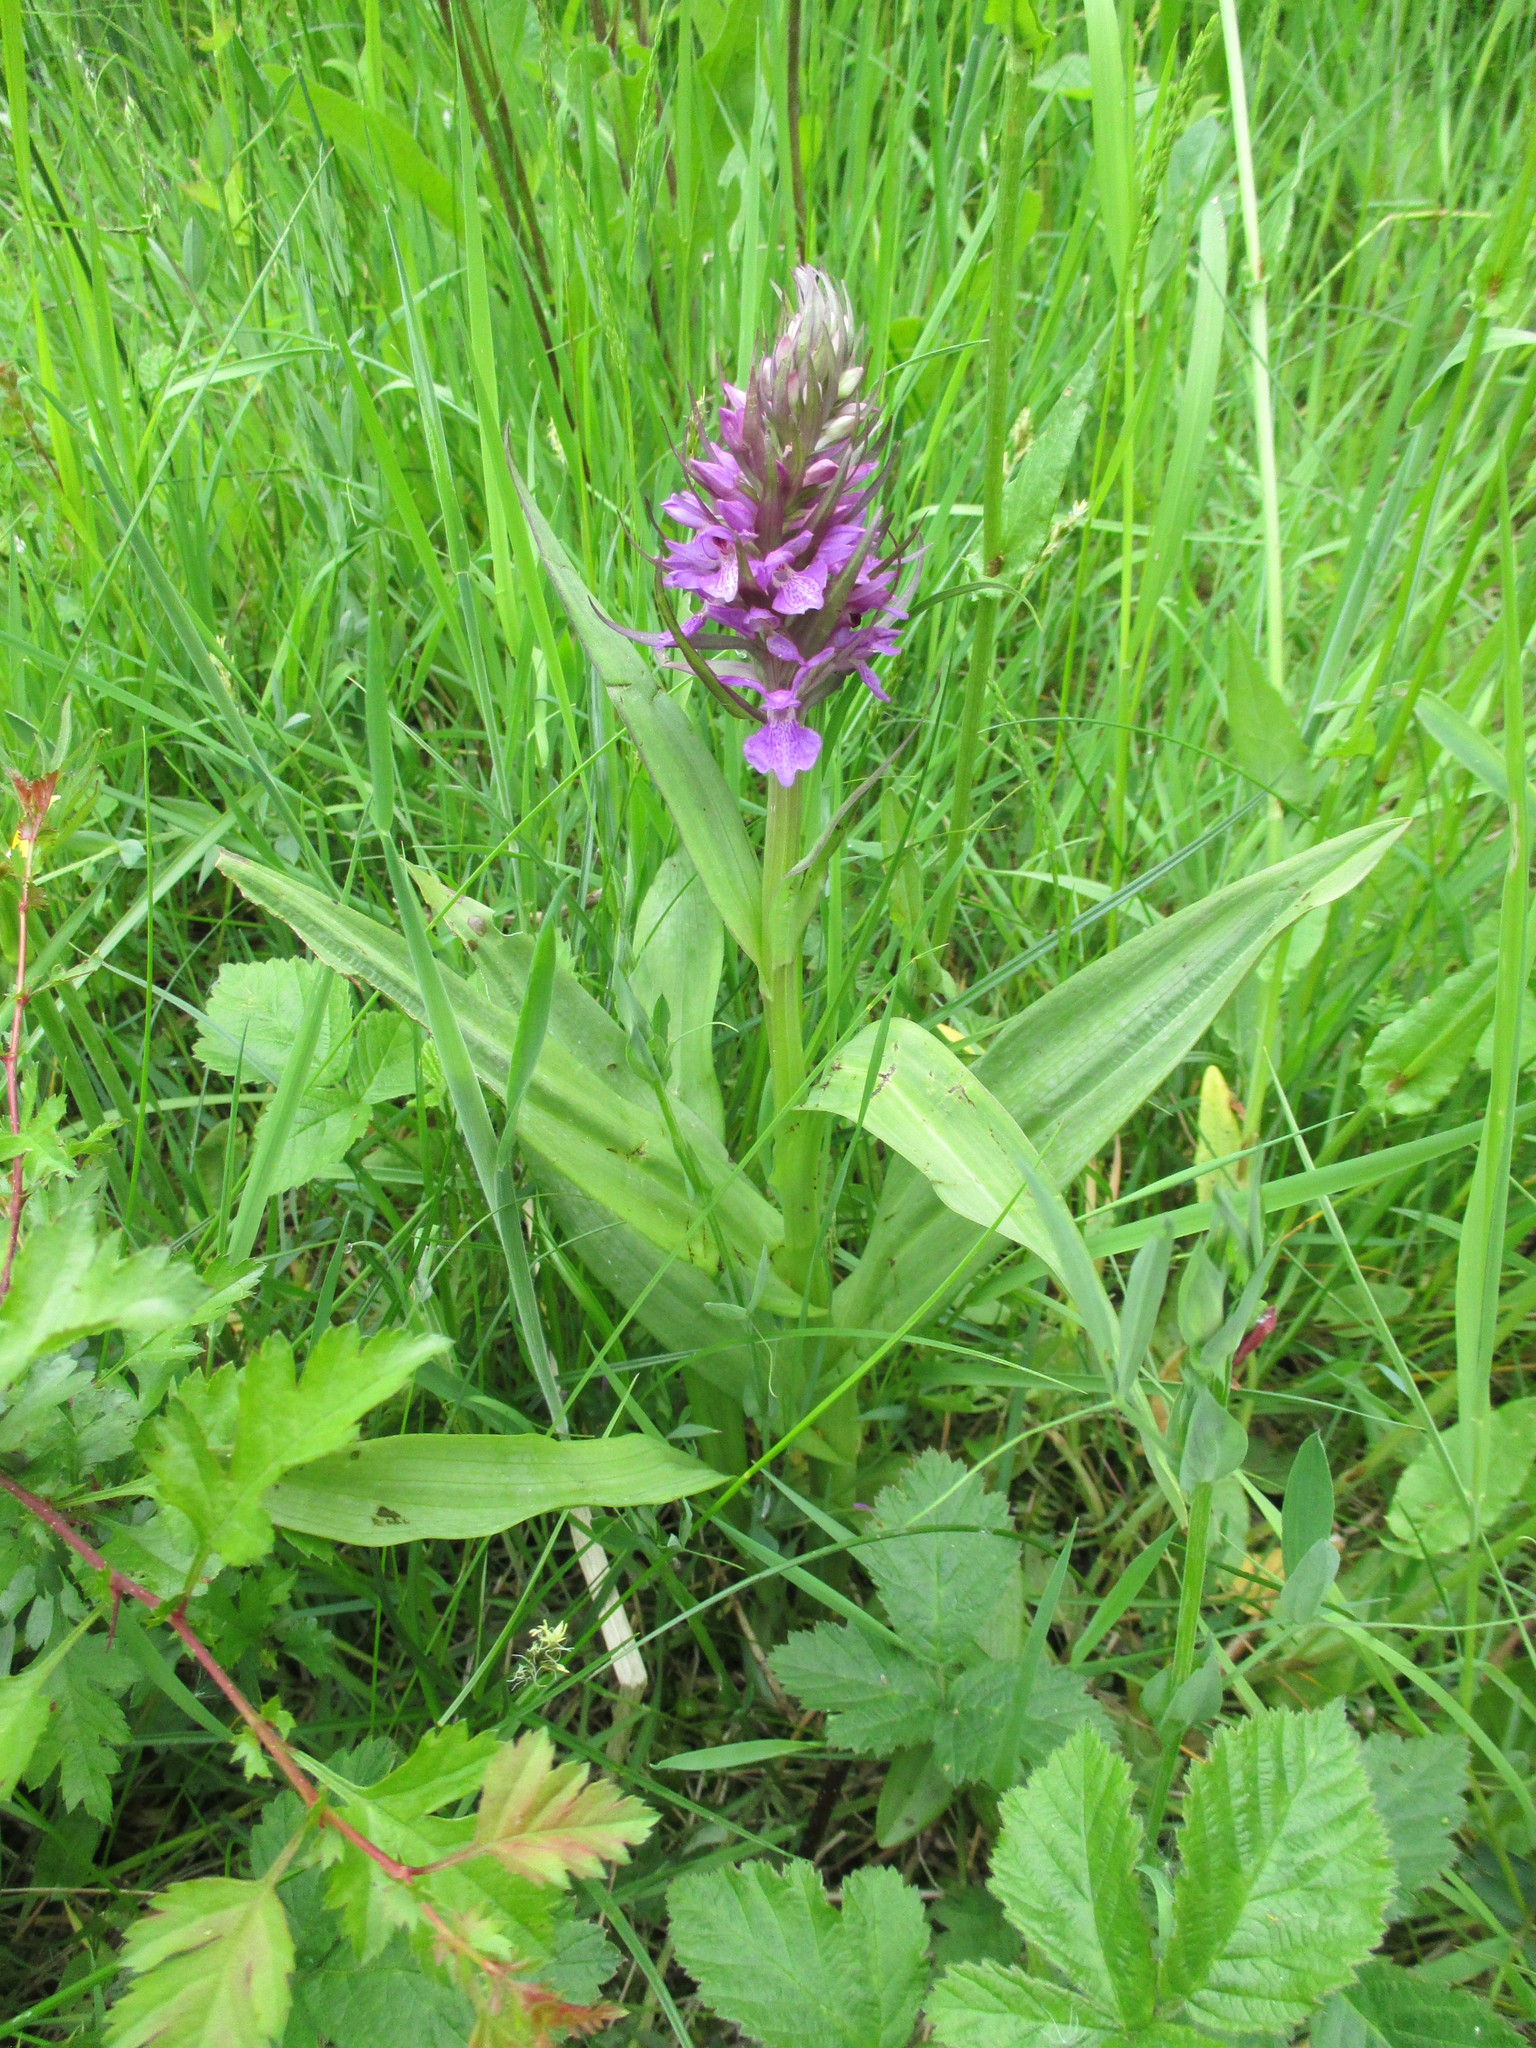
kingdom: Plantae
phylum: Tracheophyta
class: Liliopsida
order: Asparagales
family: Orchidaceae
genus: Dactylorhiza
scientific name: Dactylorhiza majalis
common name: Marsh orchid
